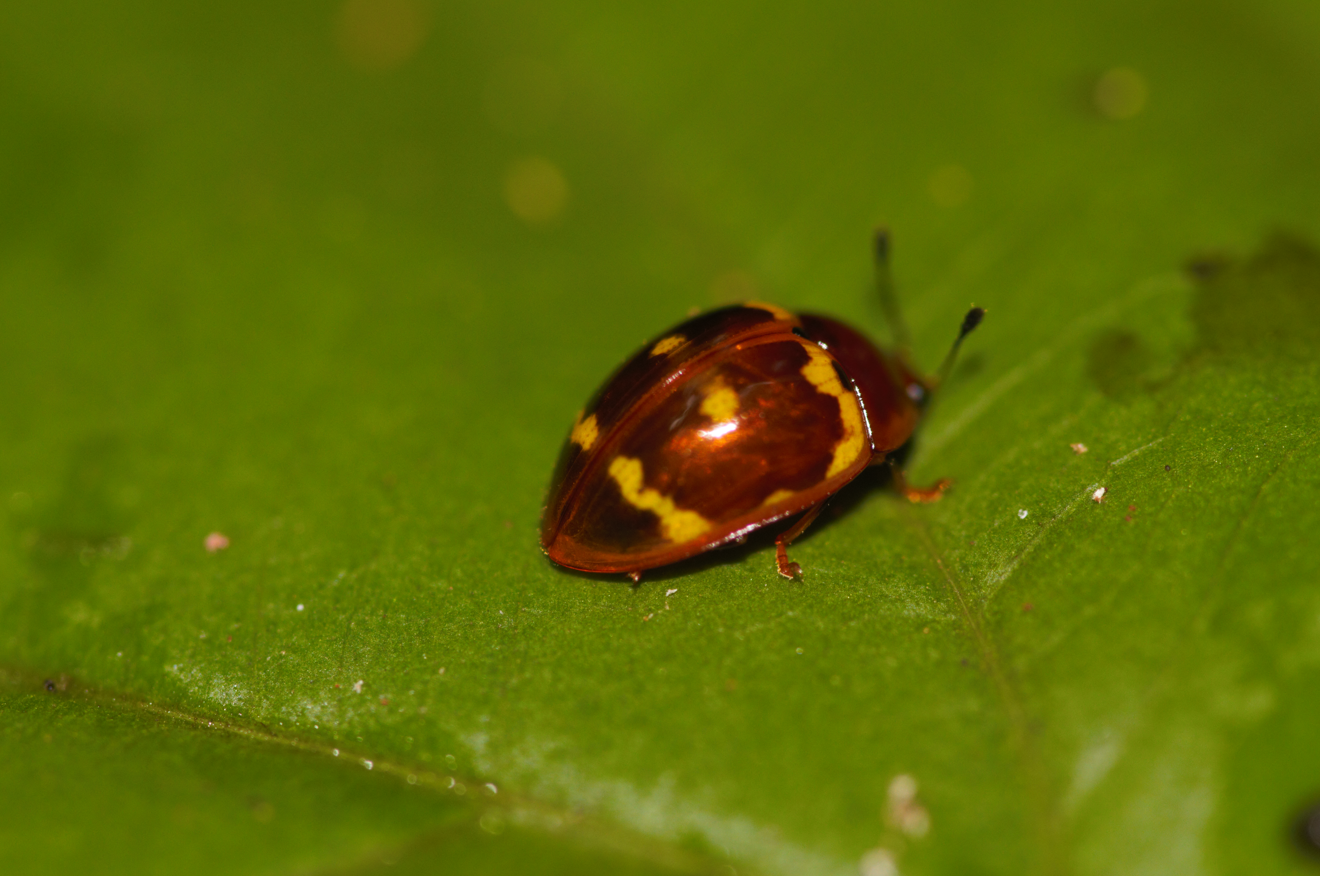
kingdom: Animalia
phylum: Arthropoda
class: Insecta
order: Coleoptera
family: Erotylidae
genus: Iphiclus
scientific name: Iphiclus porcellana
